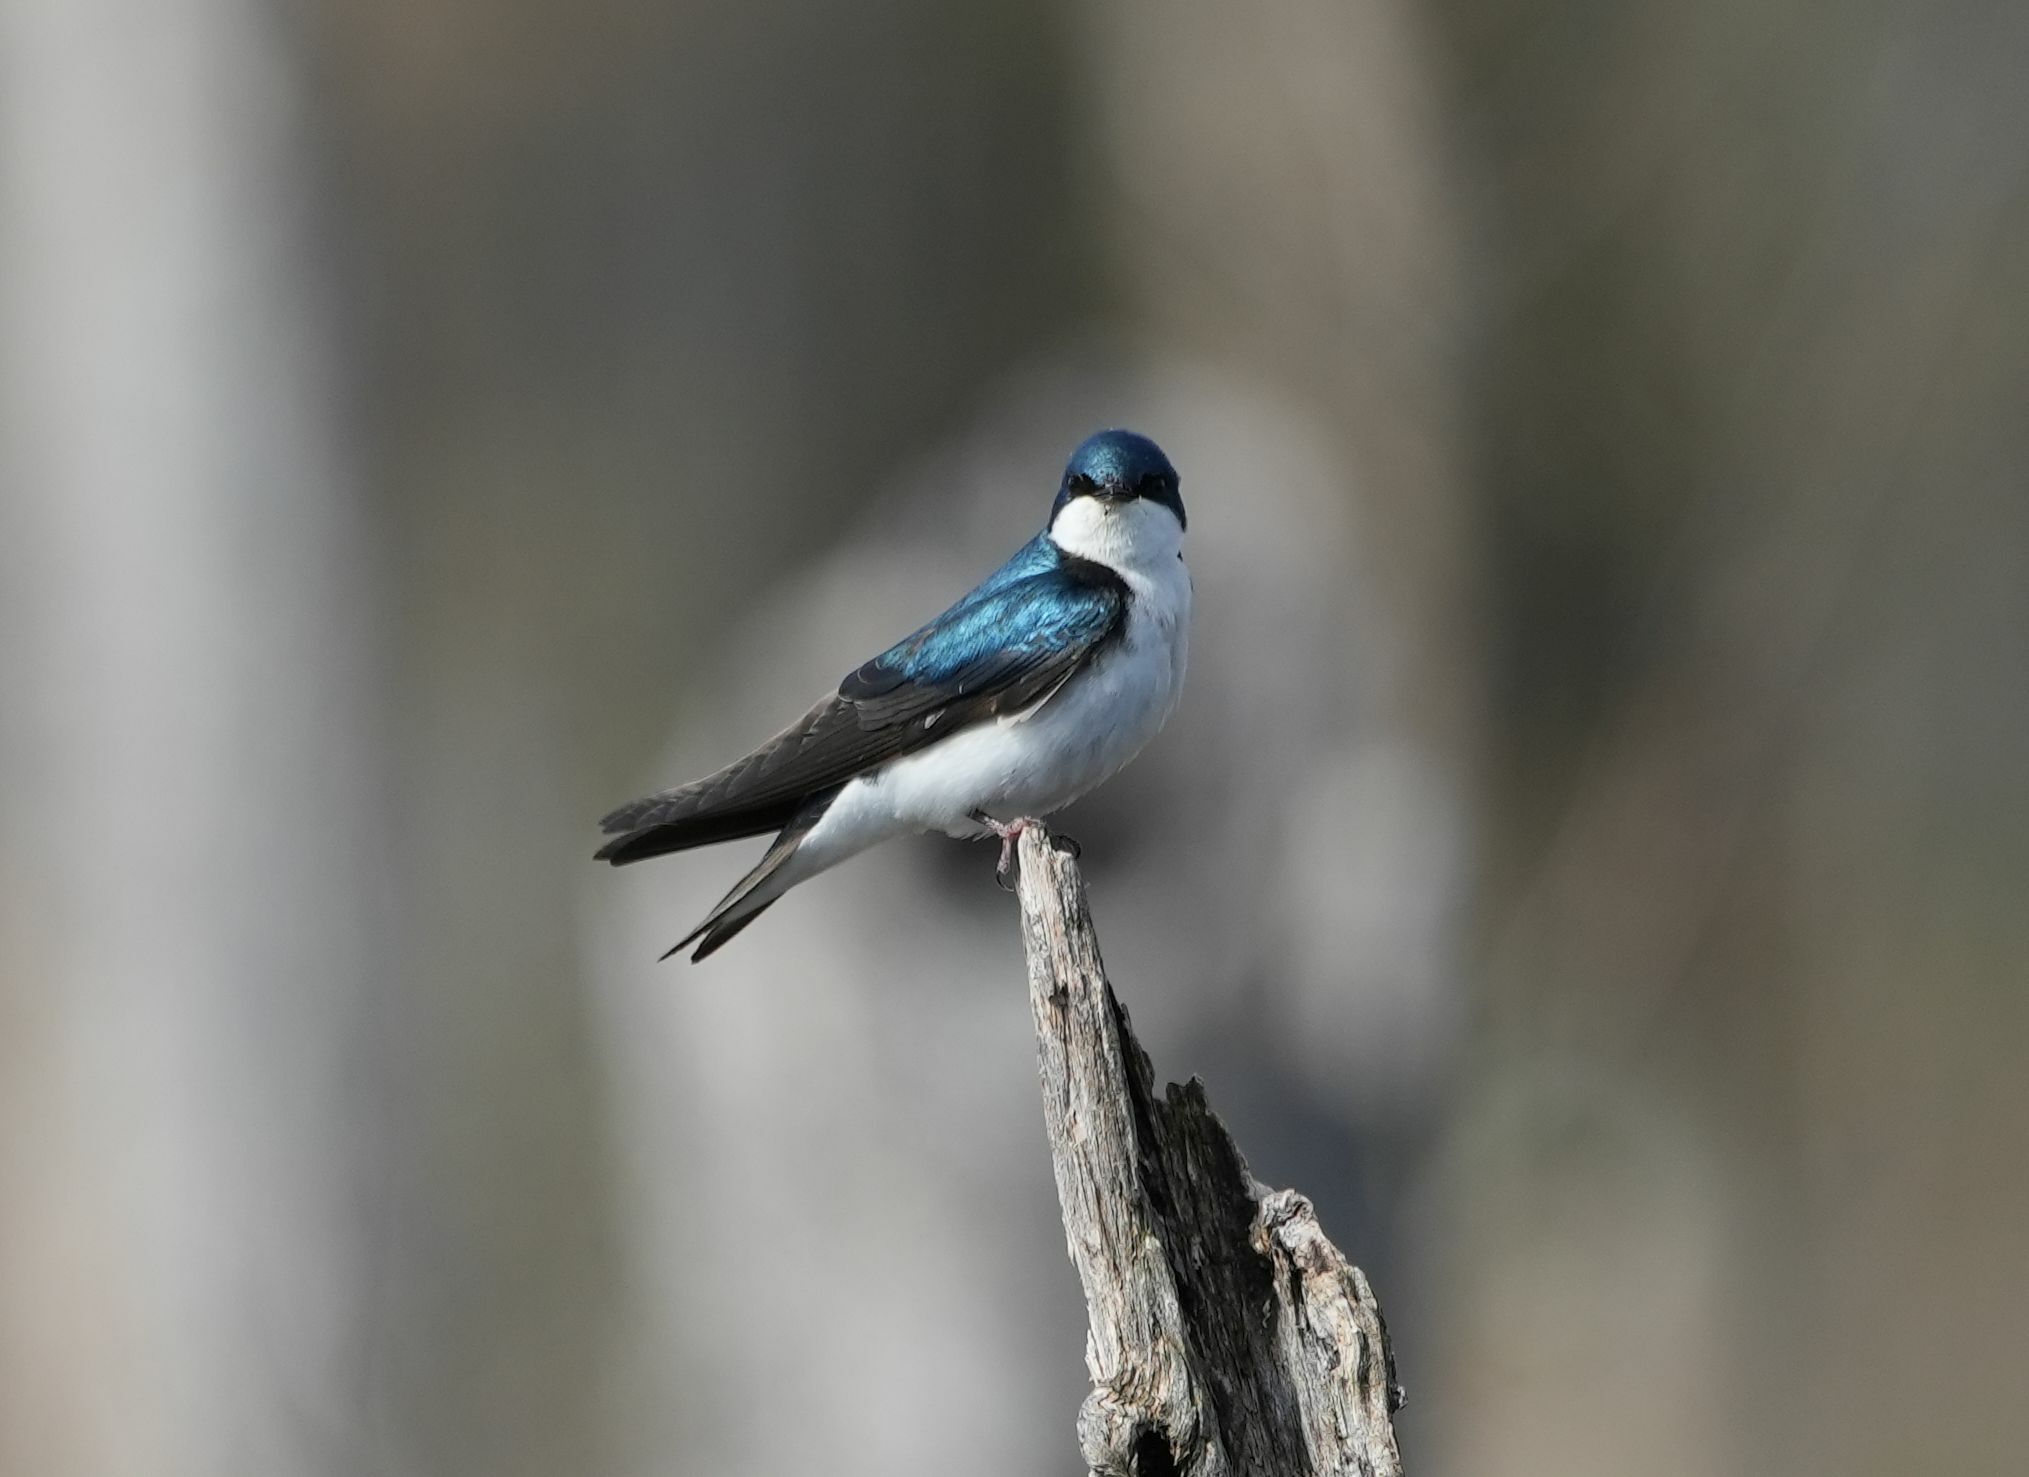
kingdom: Animalia
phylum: Chordata
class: Aves
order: Passeriformes
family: Hirundinidae
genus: Tachycineta
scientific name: Tachycineta bicolor
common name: Tree swallow
